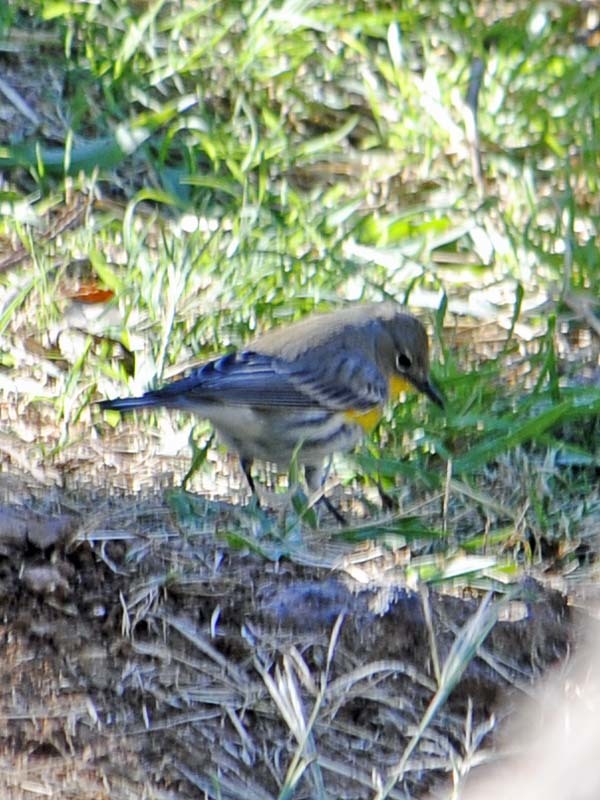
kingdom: Animalia
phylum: Chordata
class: Aves
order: Passeriformes
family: Parulidae
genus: Setophaga
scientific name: Setophaga coronata
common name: Myrtle warbler
